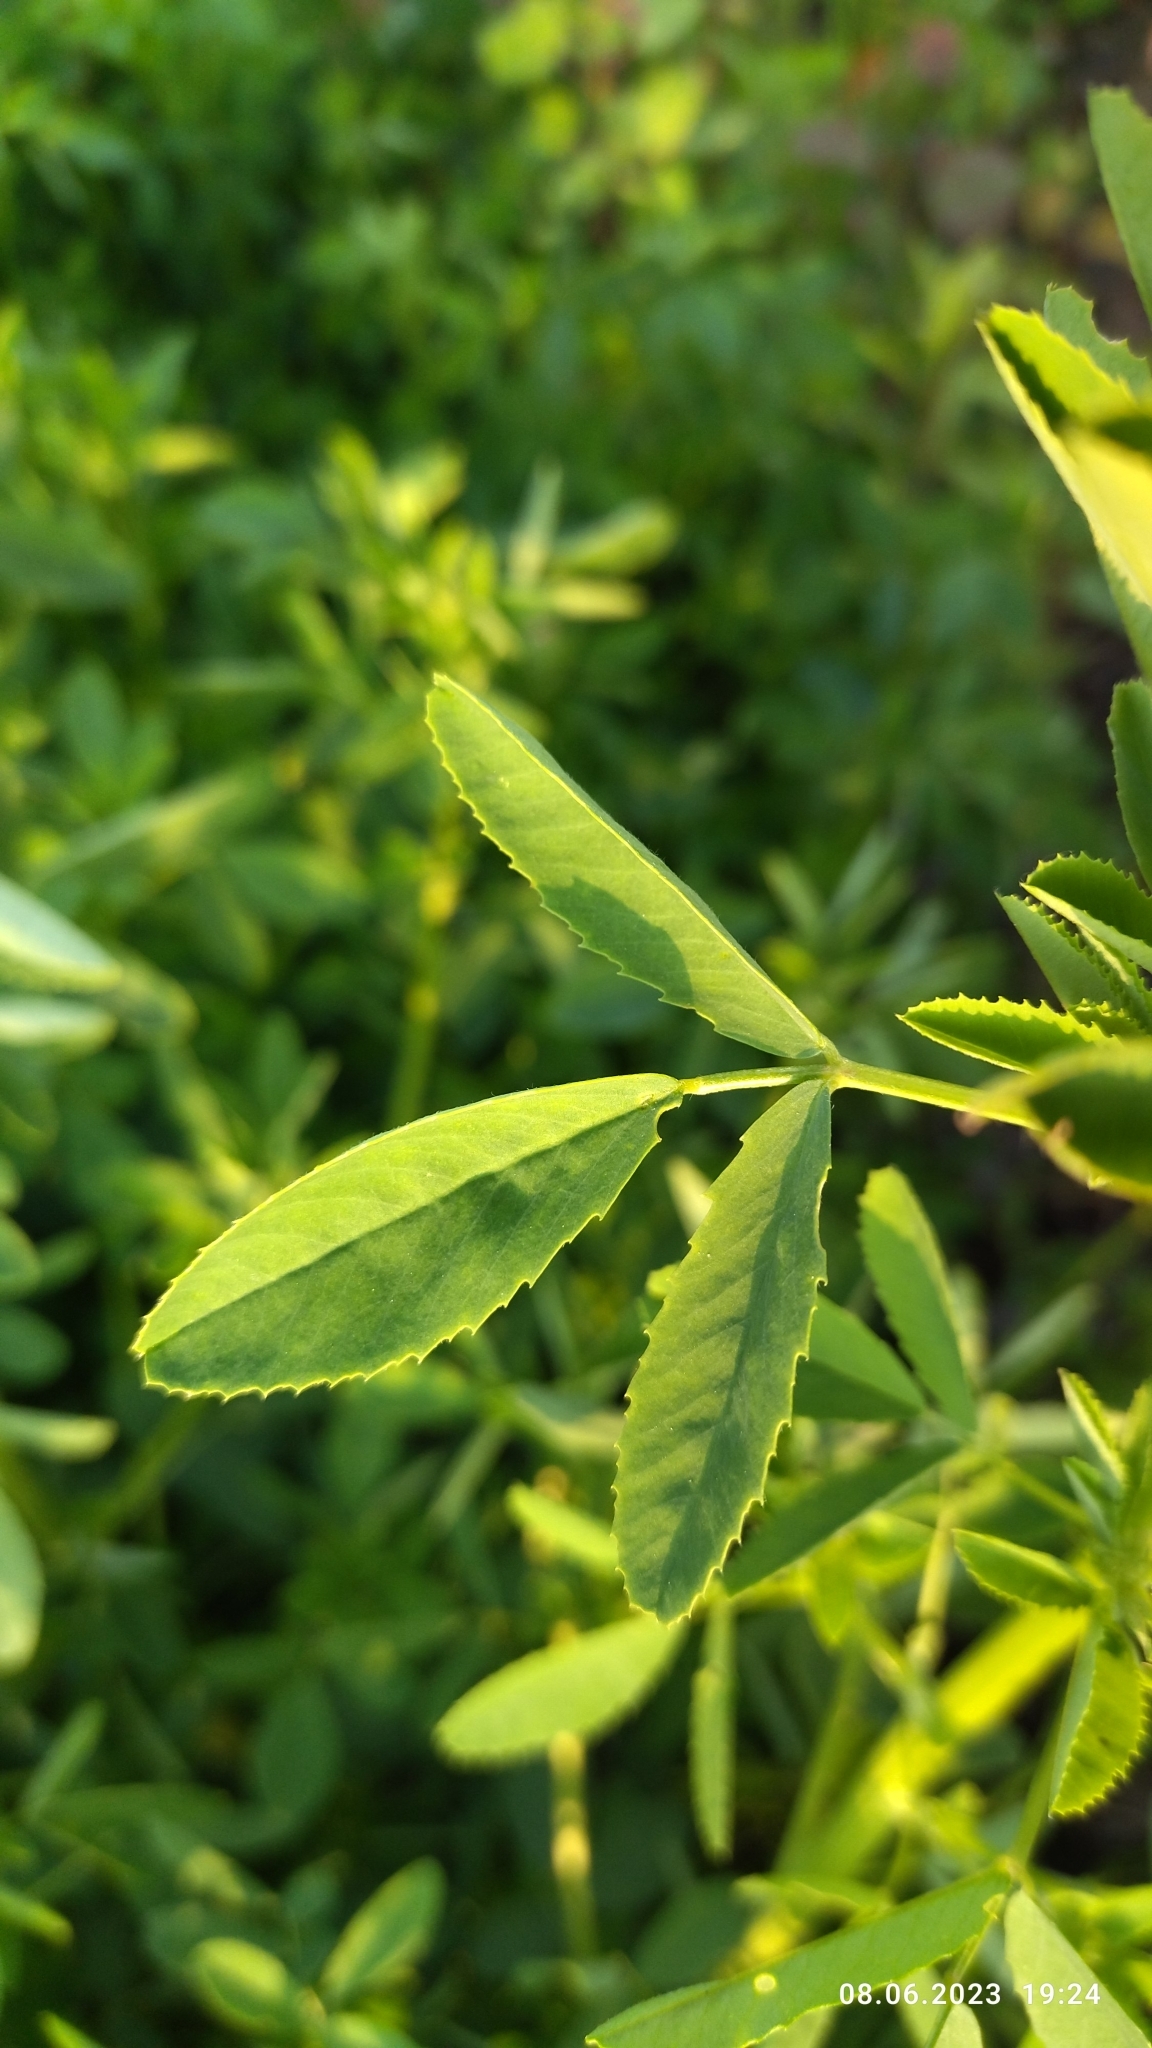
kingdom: Plantae
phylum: Tracheophyta
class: Magnoliopsida
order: Fabales
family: Fabaceae
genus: Melilotus
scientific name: Melilotus
